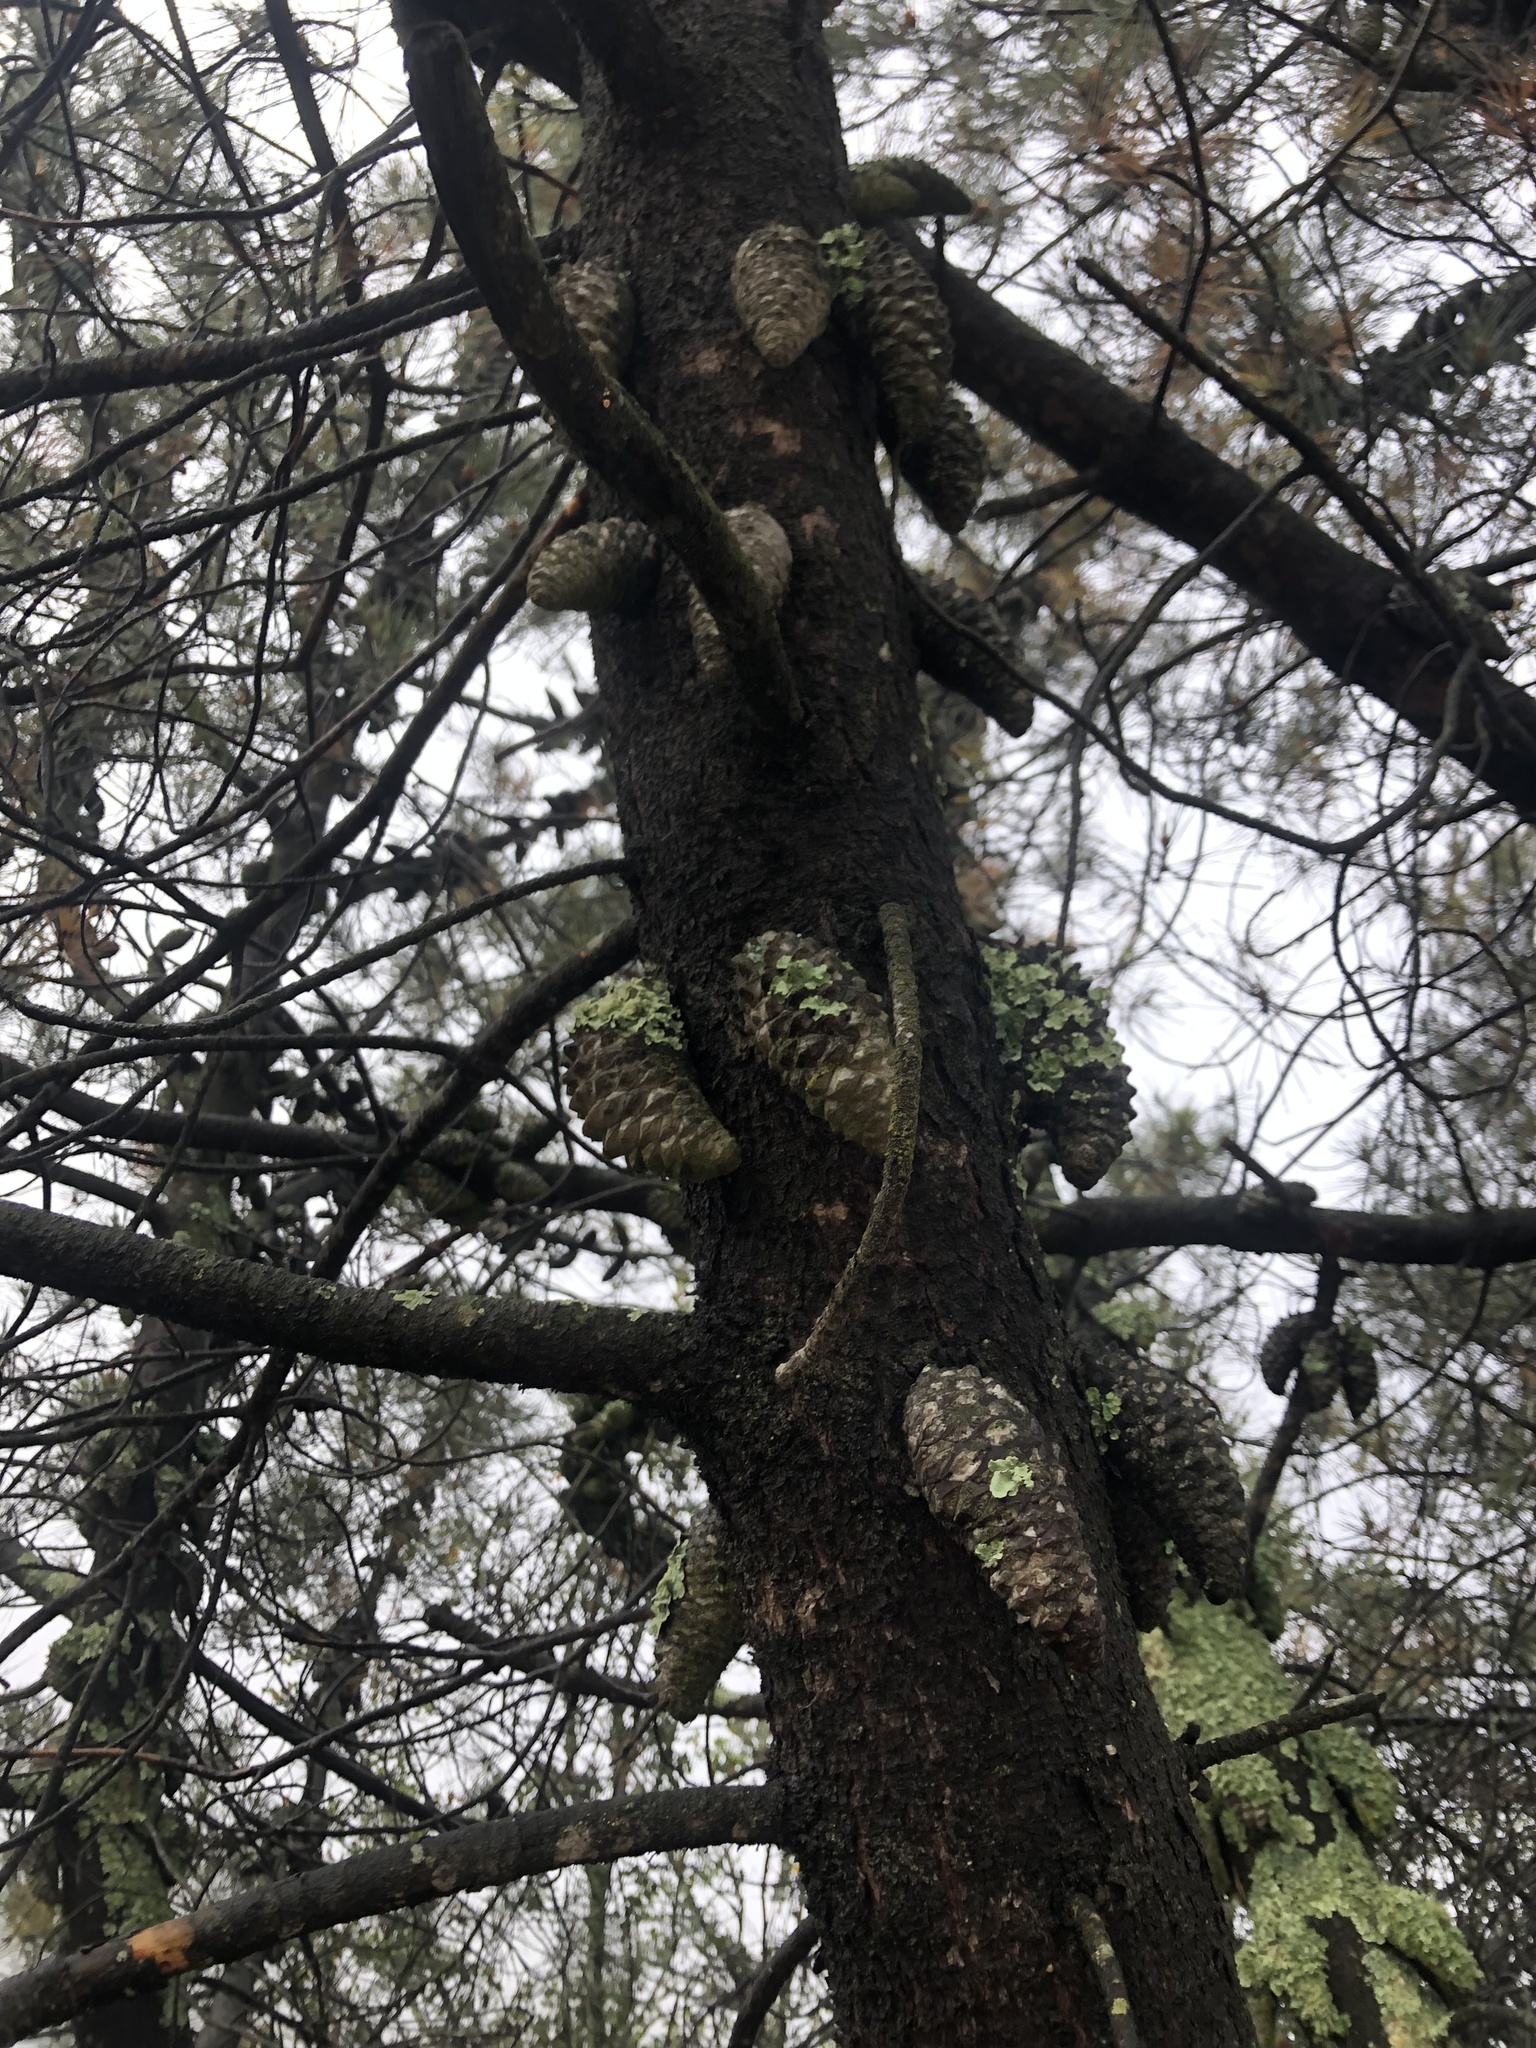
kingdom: Plantae
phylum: Tracheophyta
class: Pinopsida
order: Pinales
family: Pinaceae
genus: Pinus
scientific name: Pinus attenuata
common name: Knobcone pine
